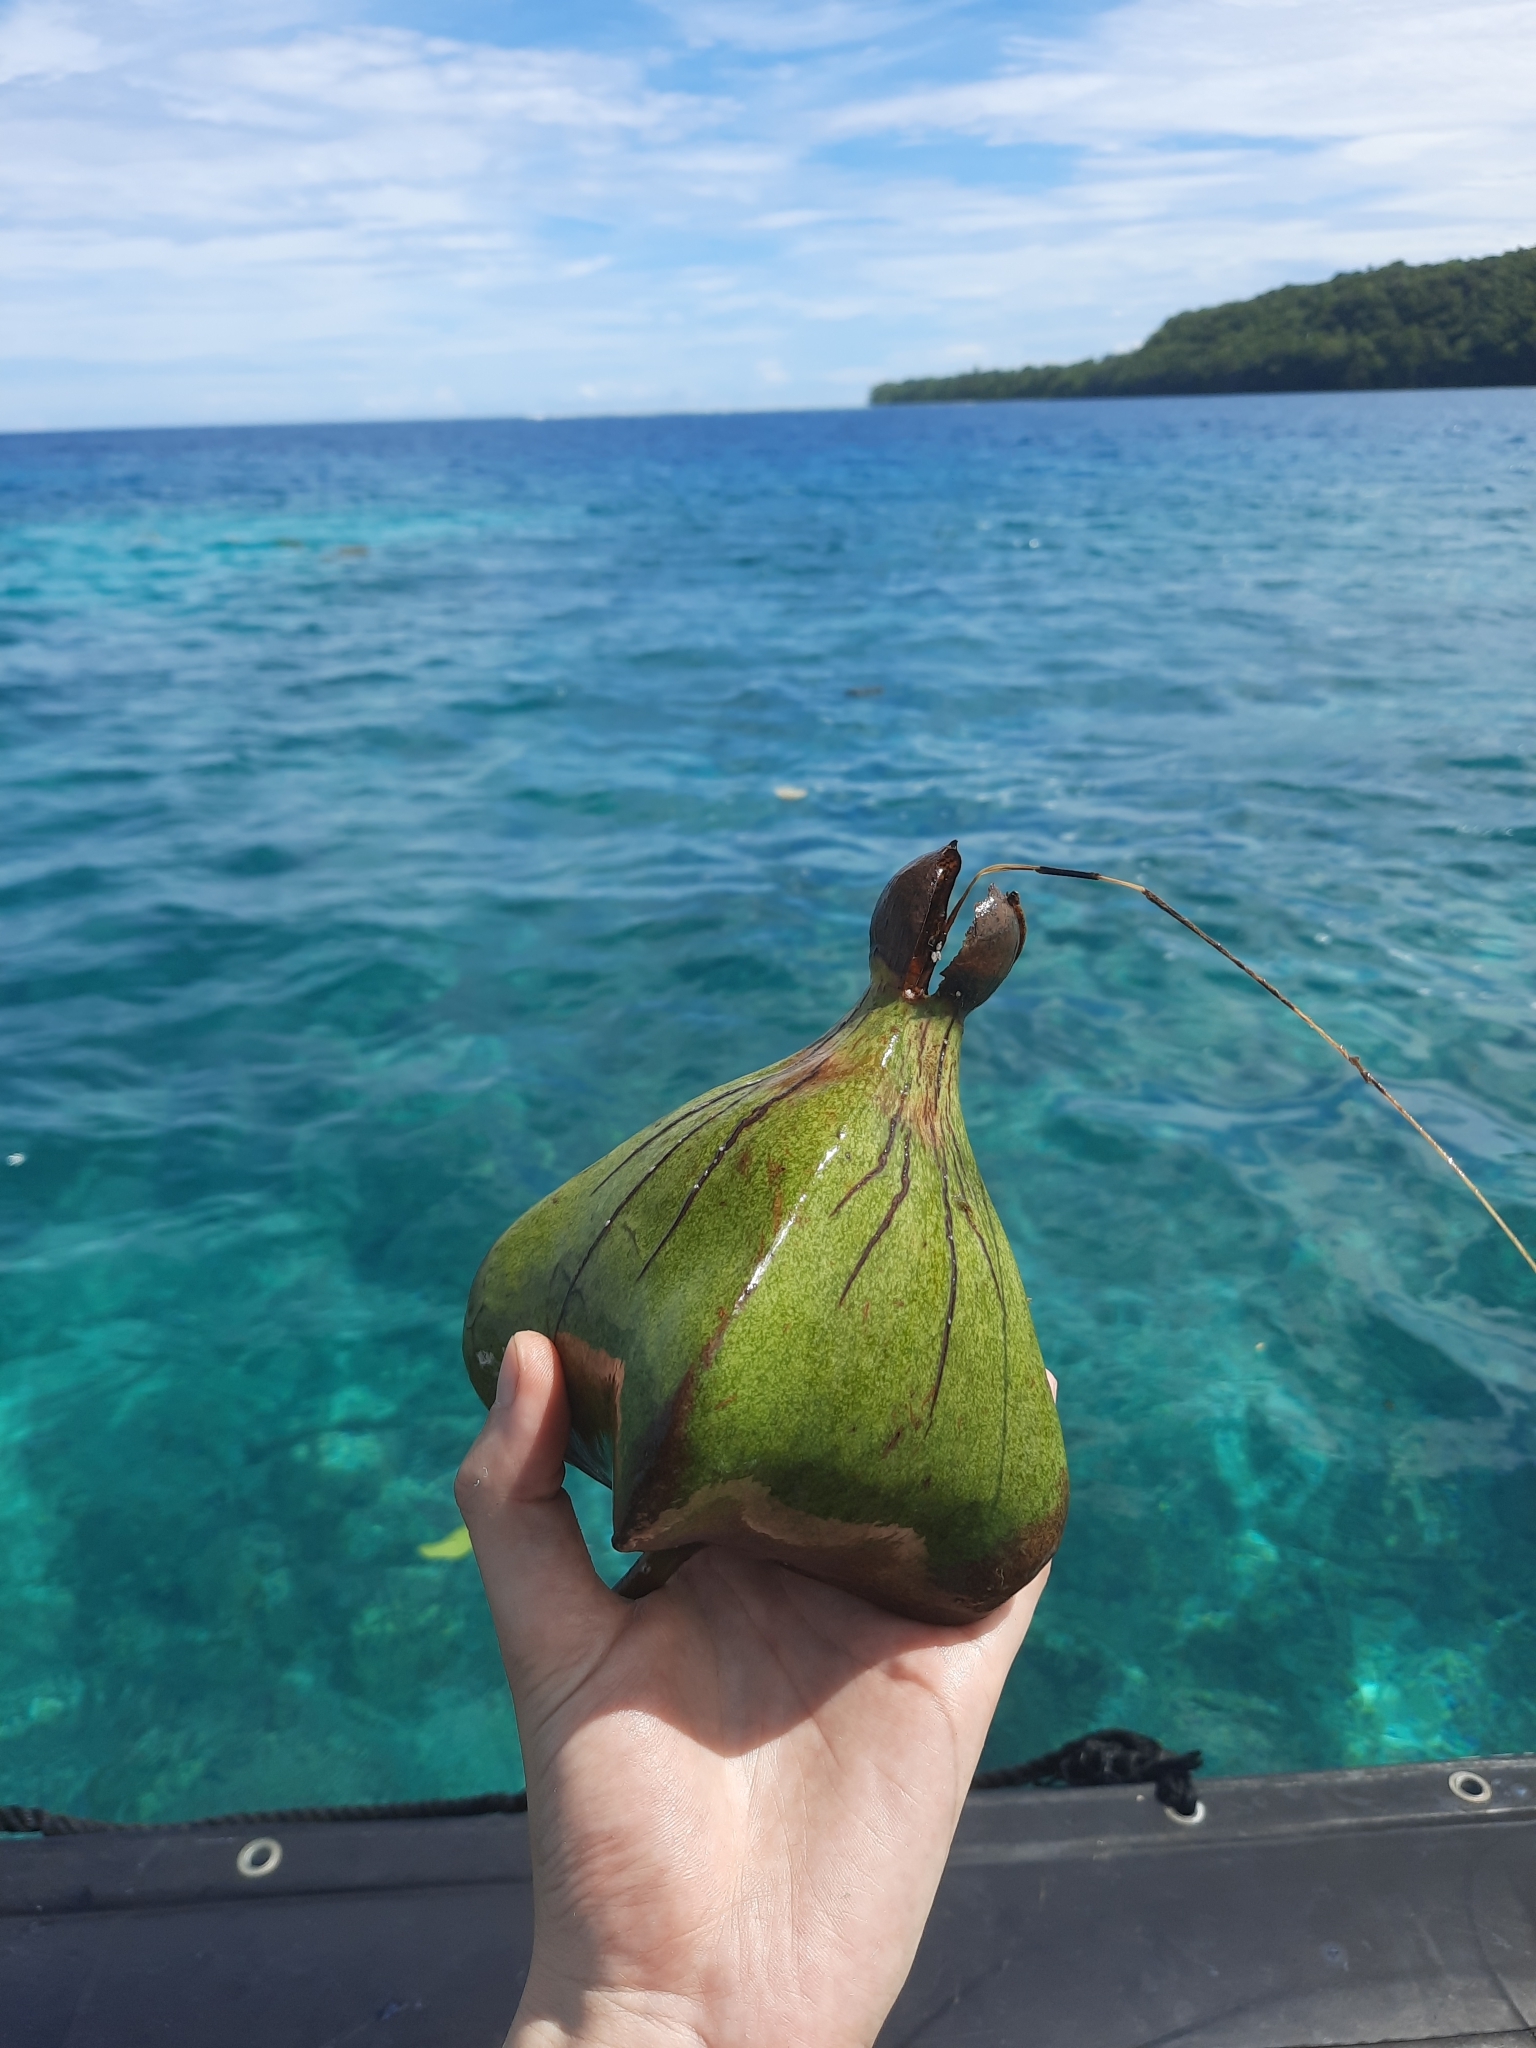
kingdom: Plantae
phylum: Tracheophyta
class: Magnoliopsida
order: Ericales
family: Lecythidaceae
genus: Barringtonia
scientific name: Barringtonia asiatica
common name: Mango-pine
